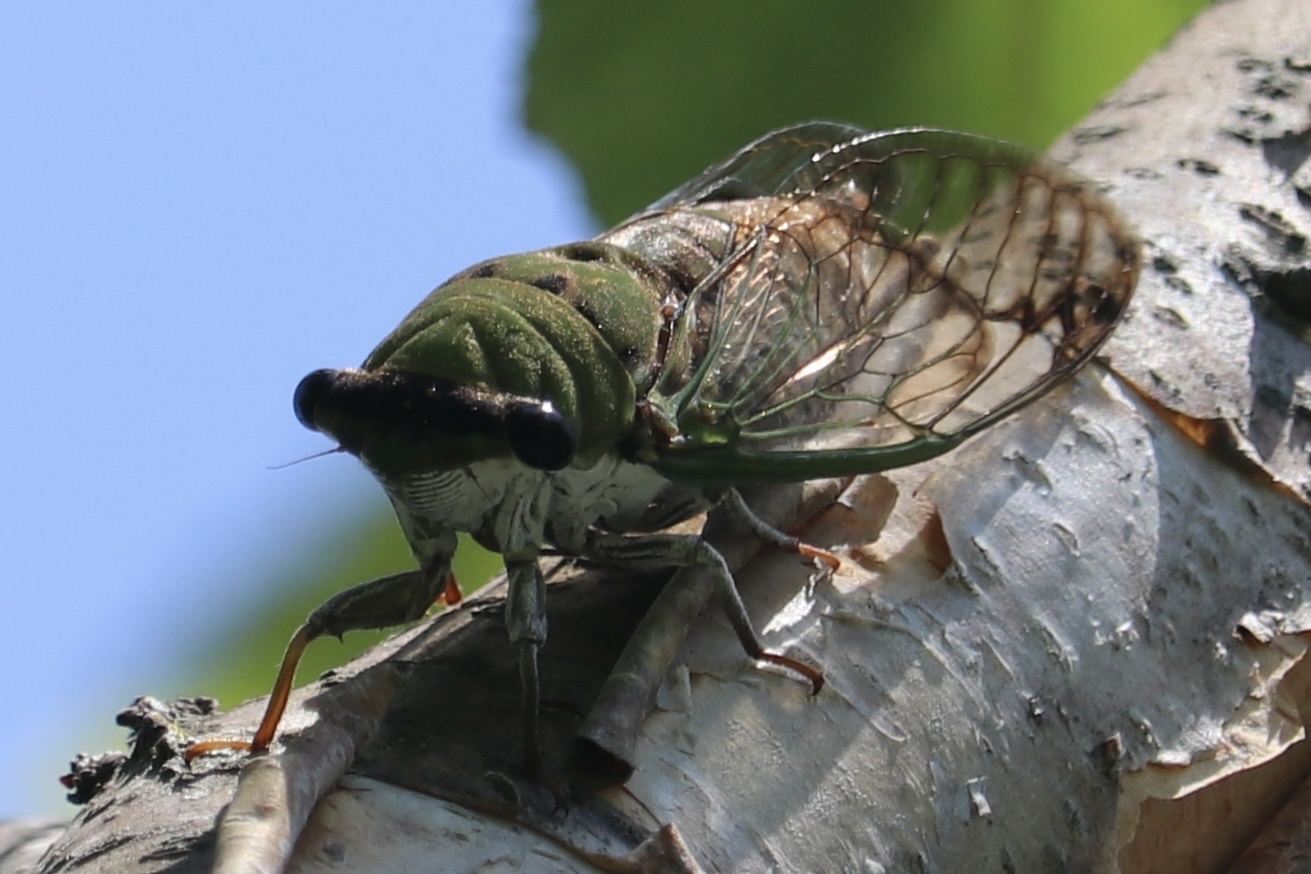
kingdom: Animalia
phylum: Arthropoda
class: Insecta
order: Hemiptera
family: Cicadidae
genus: Neotibicen
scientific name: Neotibicen superbus
